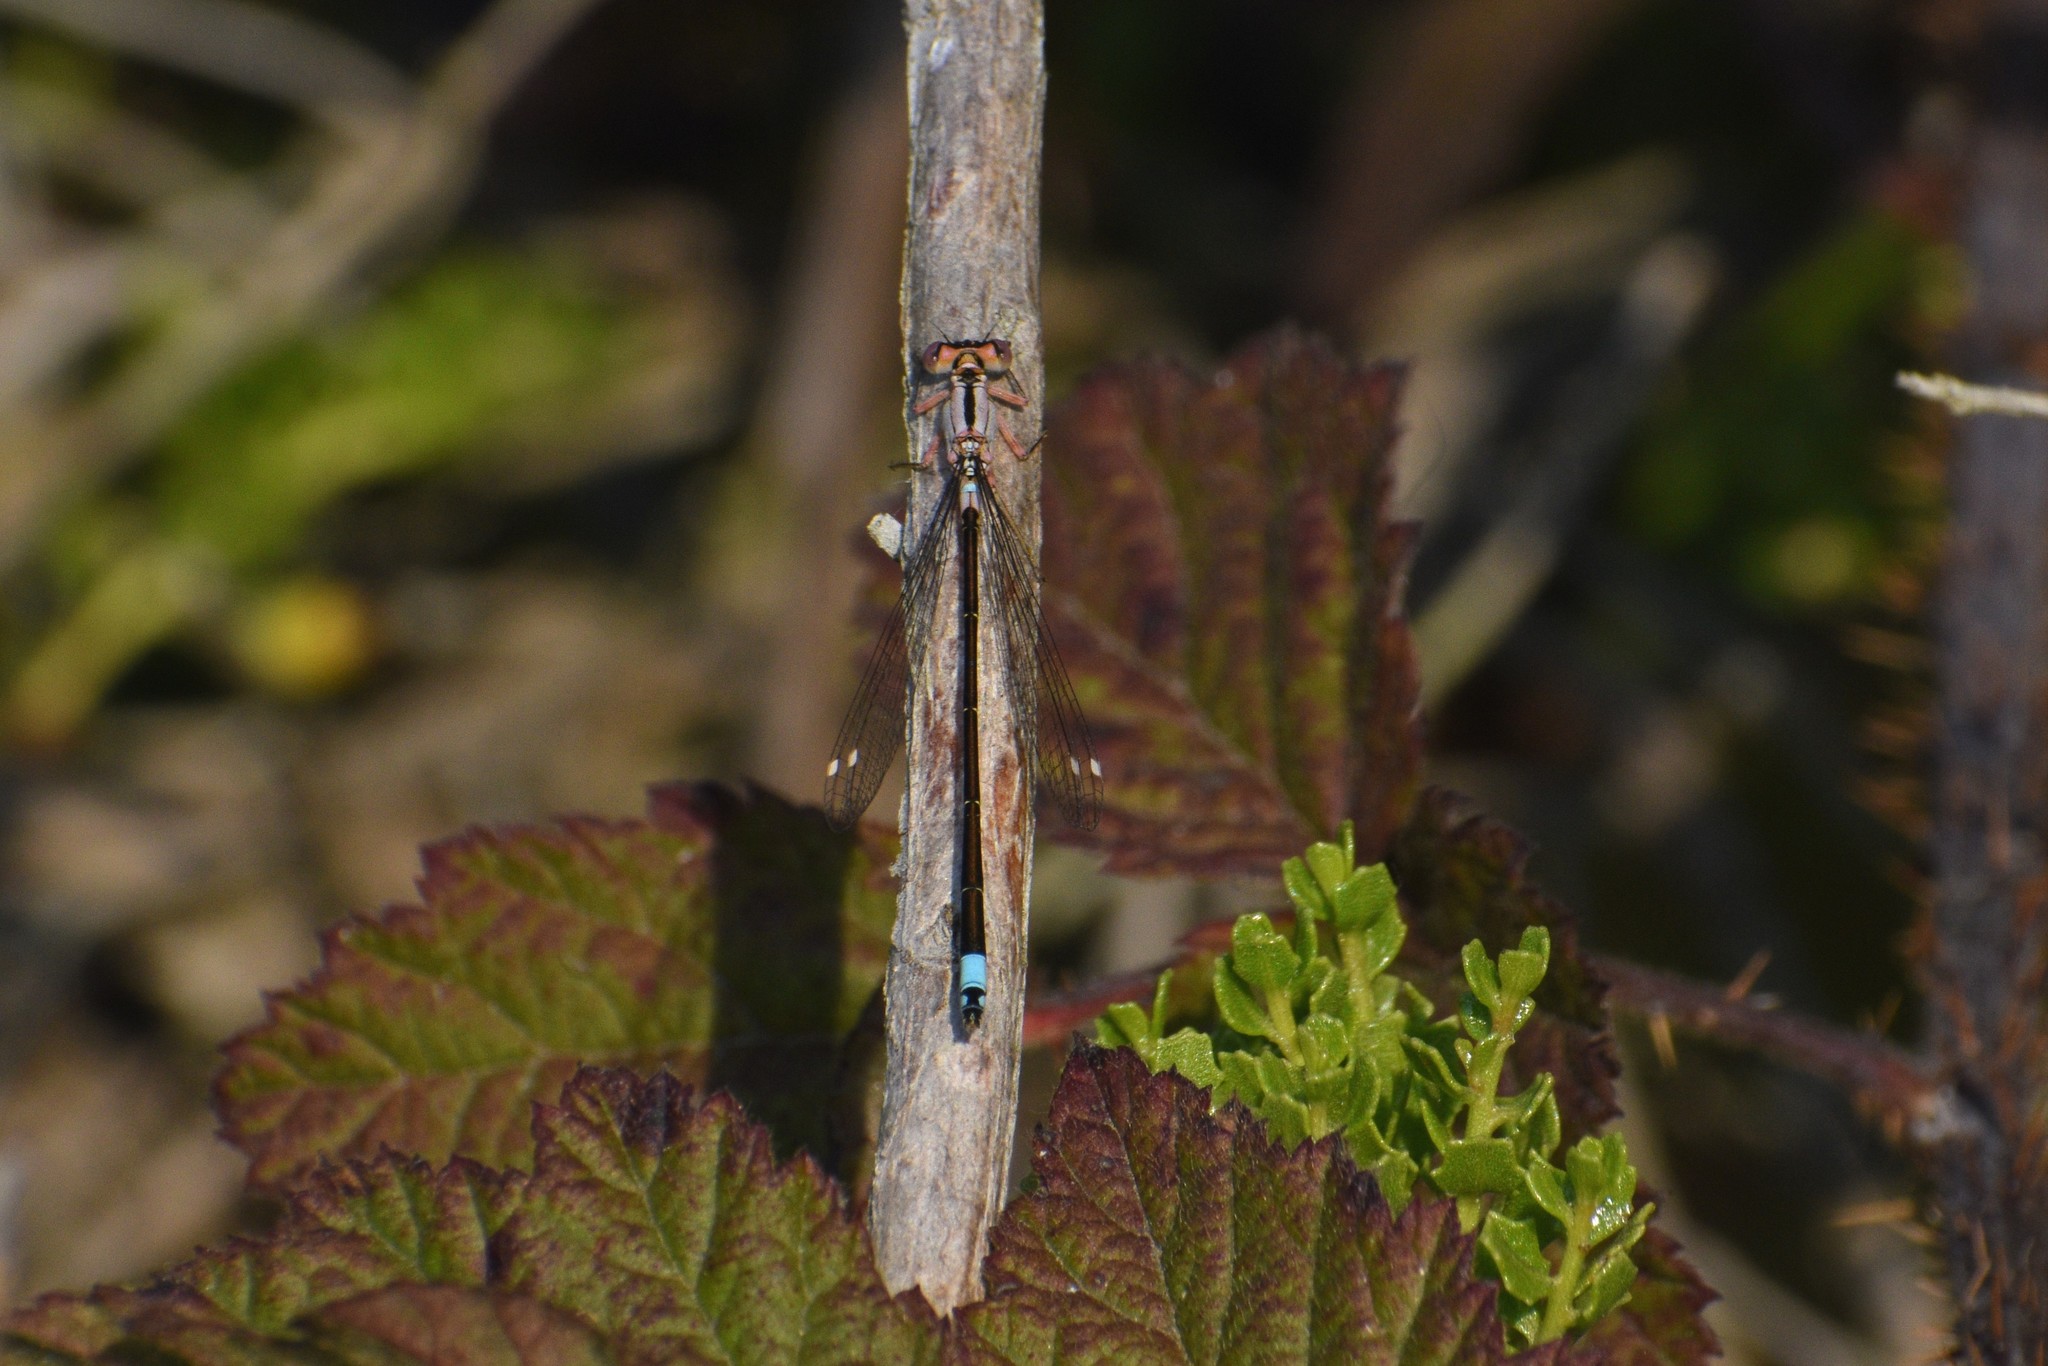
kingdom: Animalia
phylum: Arthropoda
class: Insecta
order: Odonata
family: Coenagrionidae
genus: Ischnura
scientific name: Ischnura cervula
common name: Pacific forktail
